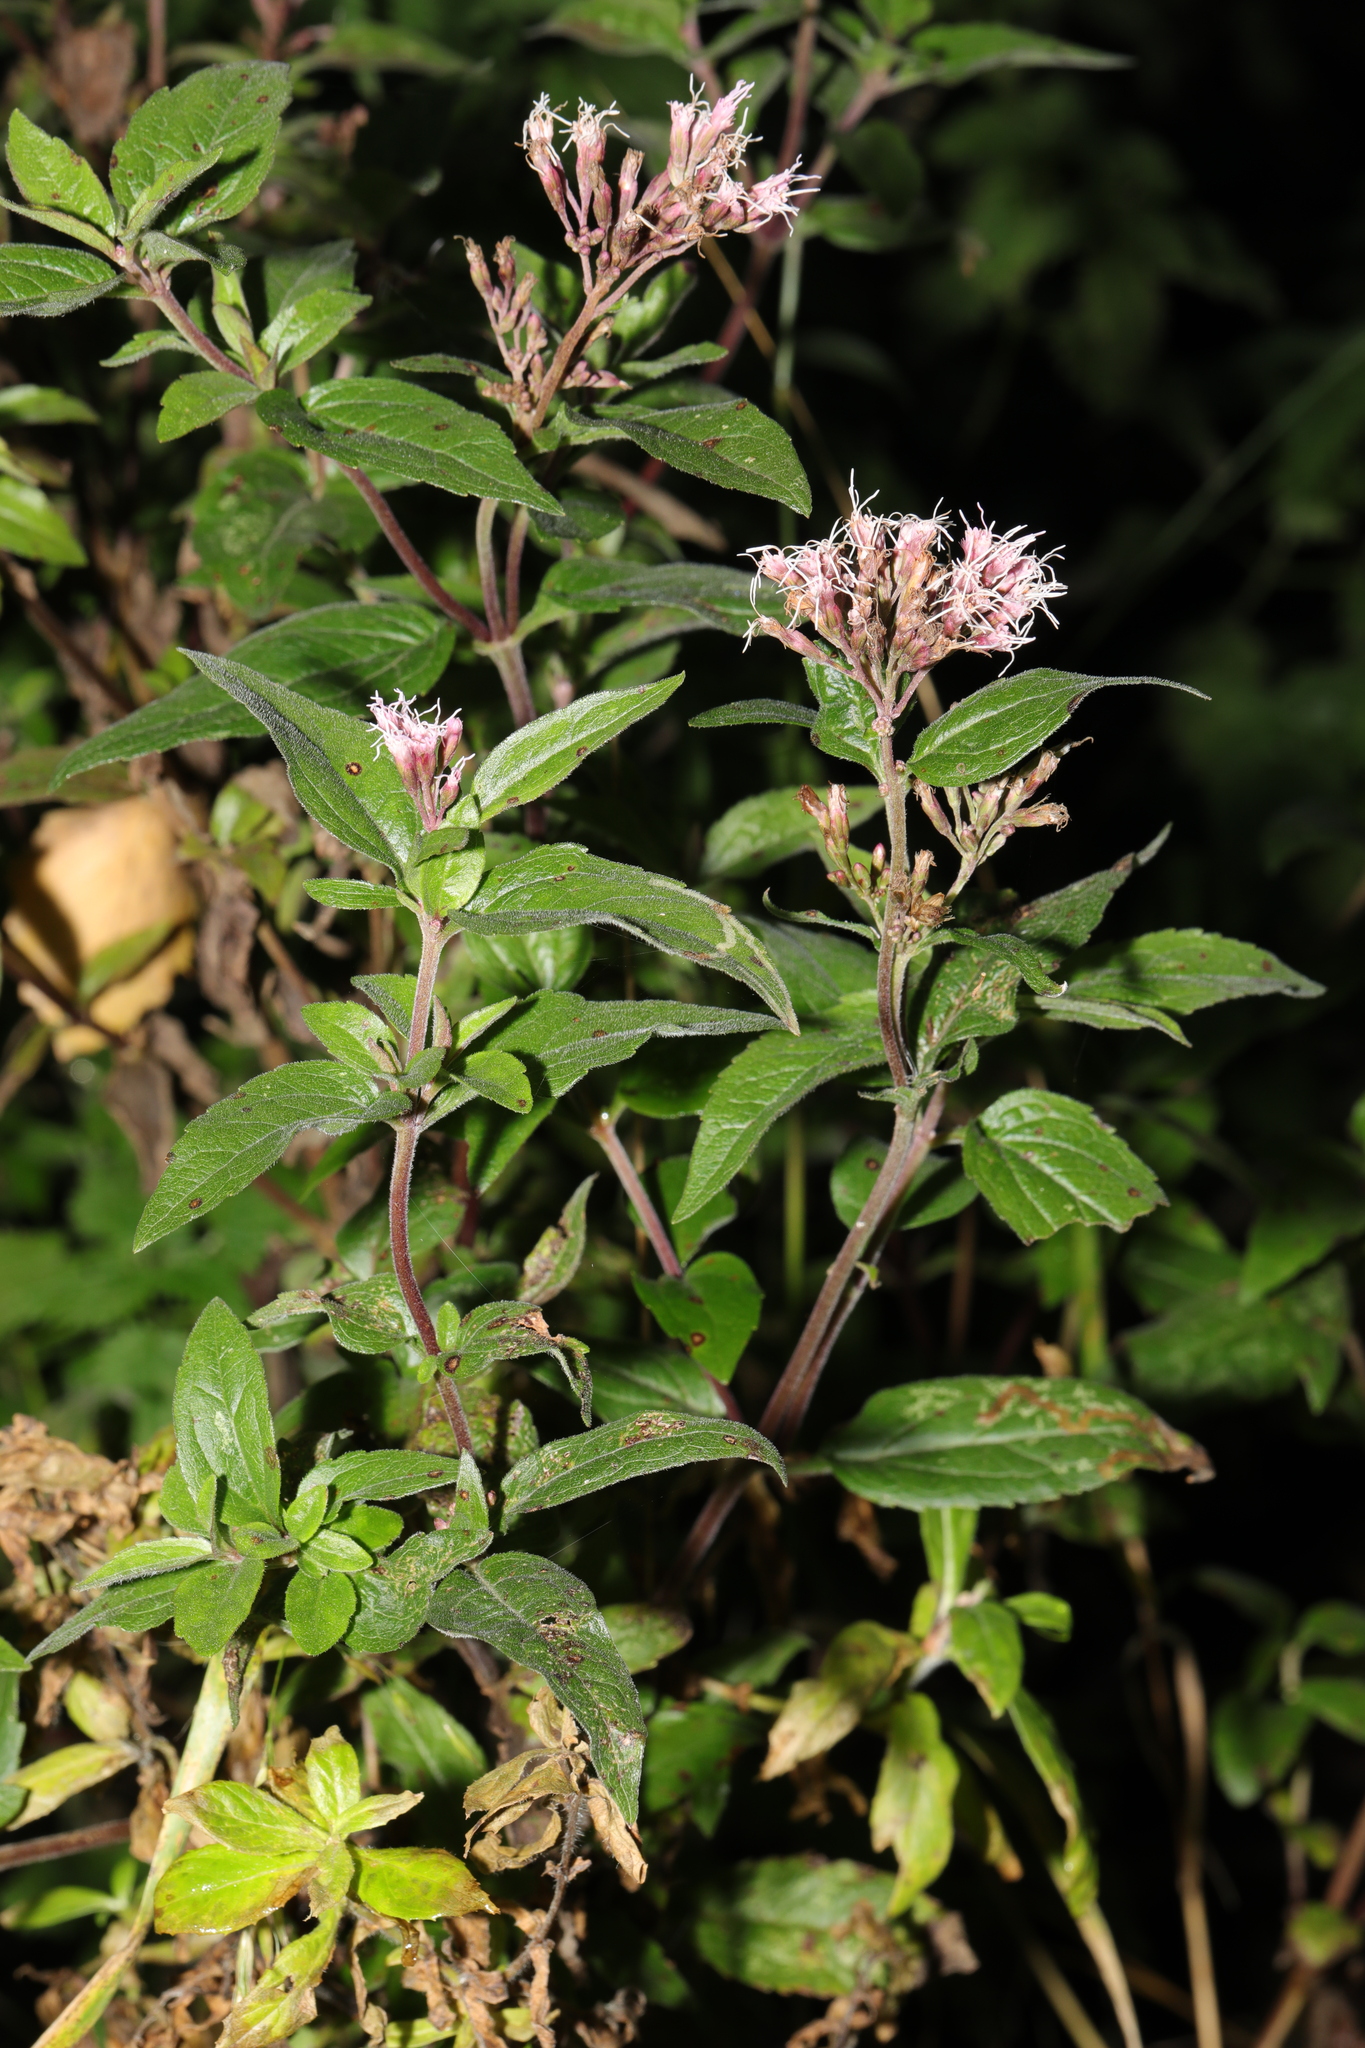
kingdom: Plantae
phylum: Tracheophyta
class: Magnoliopsida
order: Asterales
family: Asteraceae
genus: Eupatorium
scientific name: Eupatorium cannabinum
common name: Hemp-agrimony
